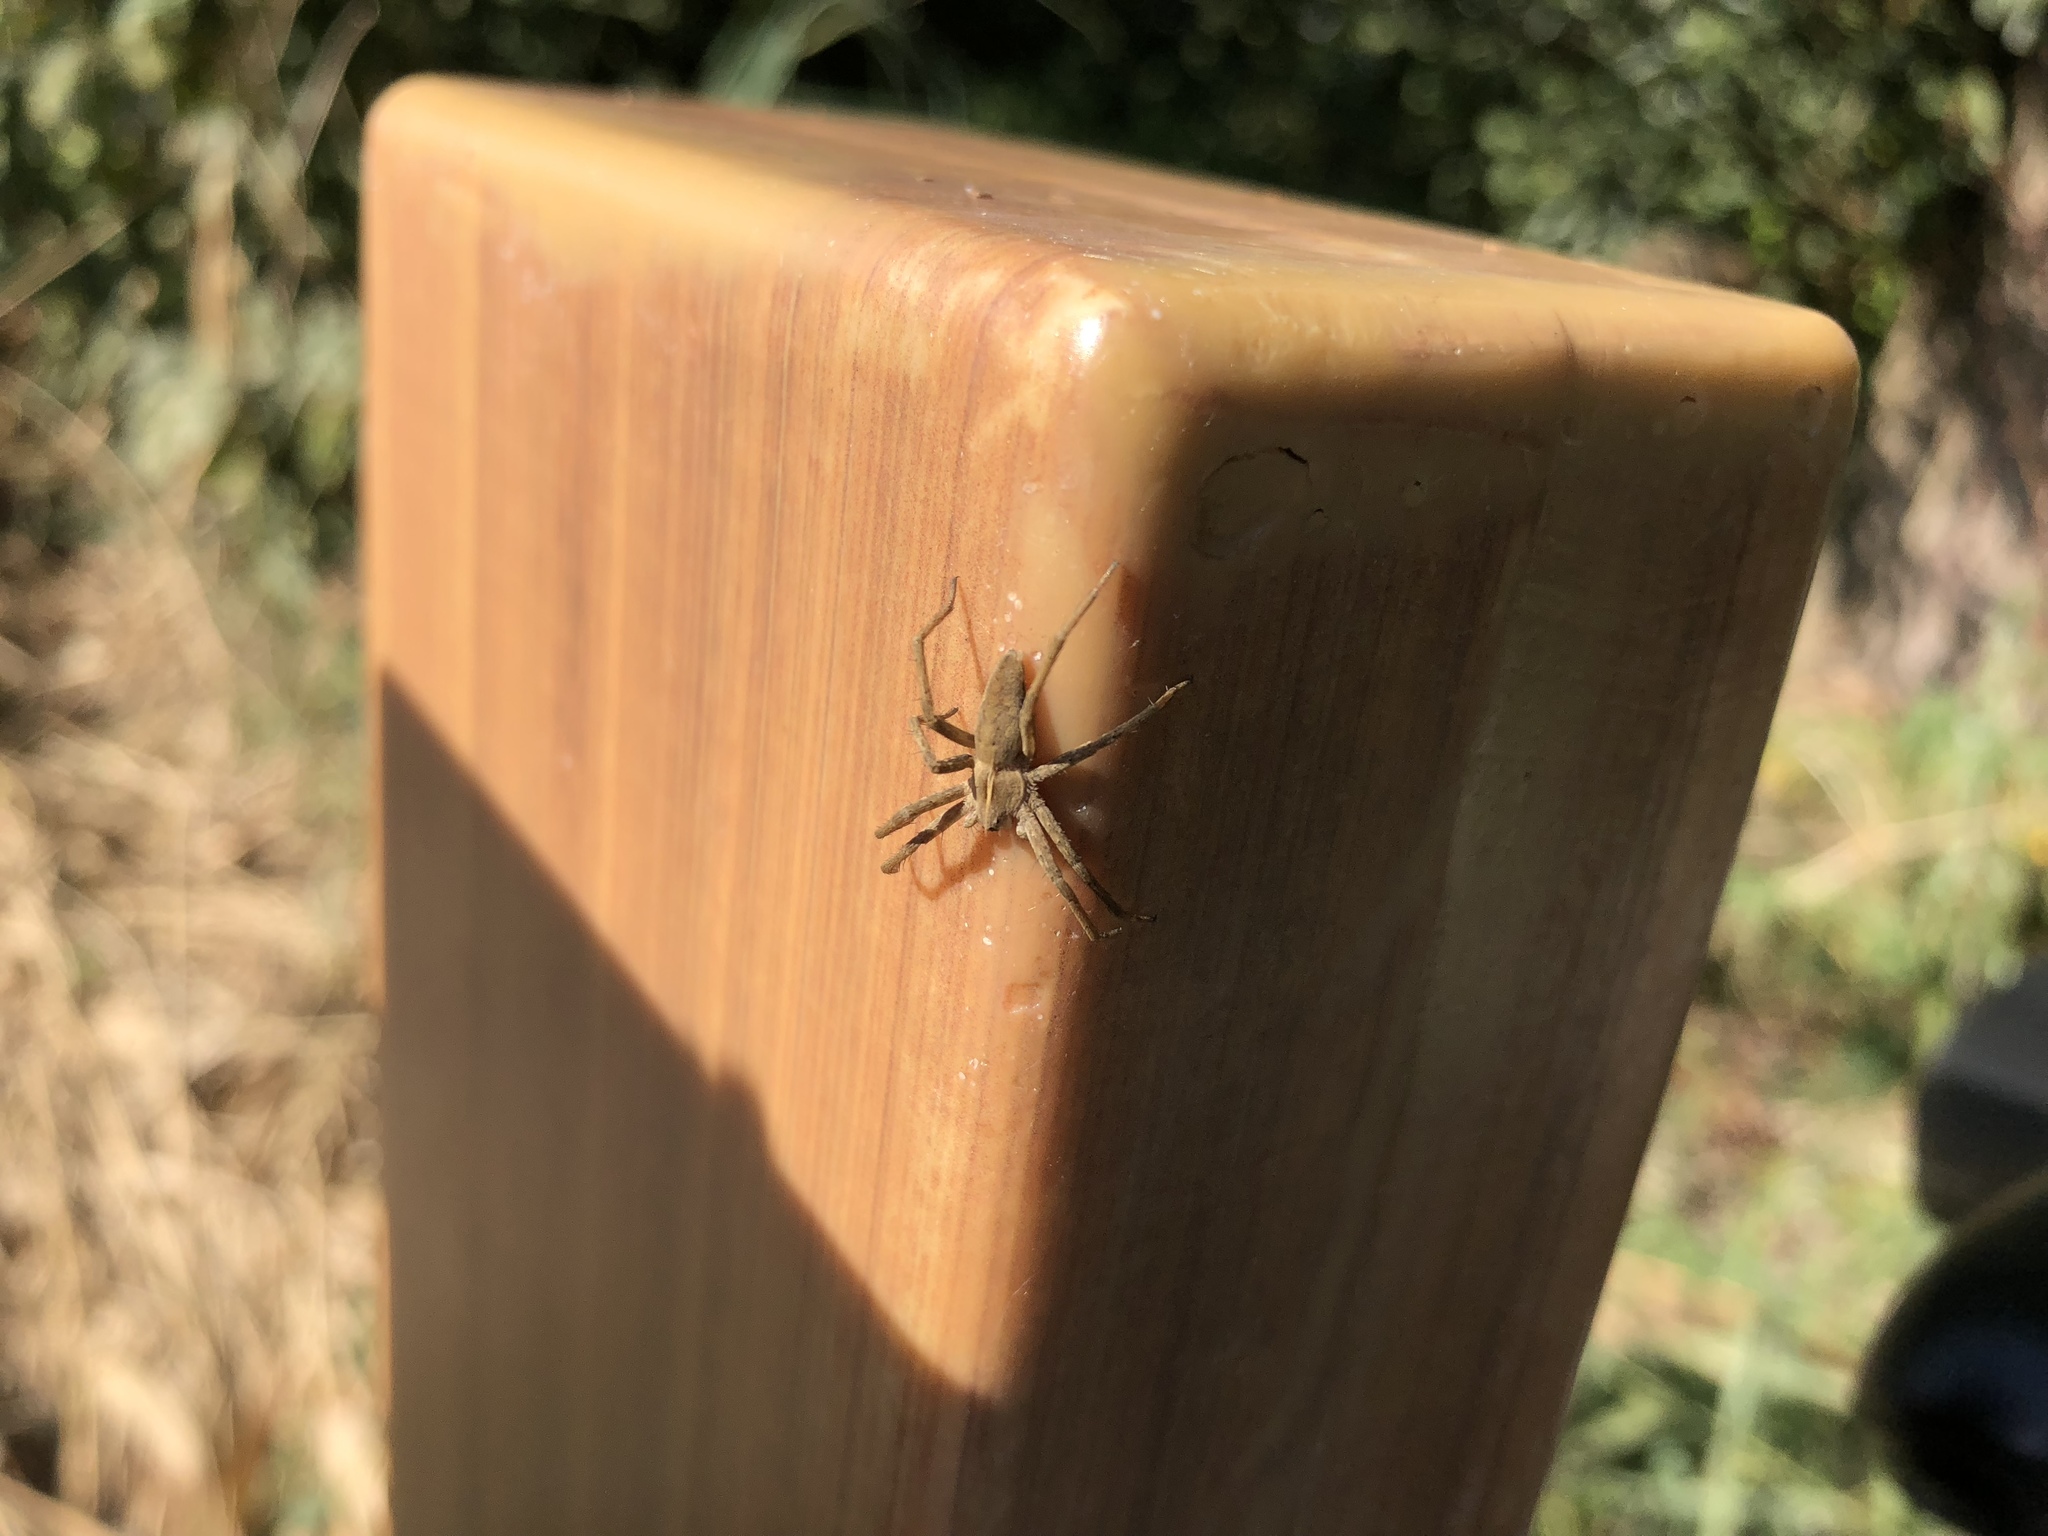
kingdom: Animalia
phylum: Arthropoda
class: Arachnida
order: Araneae
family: Pisauridae
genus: Pisaura
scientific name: Pisaura mirabilis
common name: Tent spider
